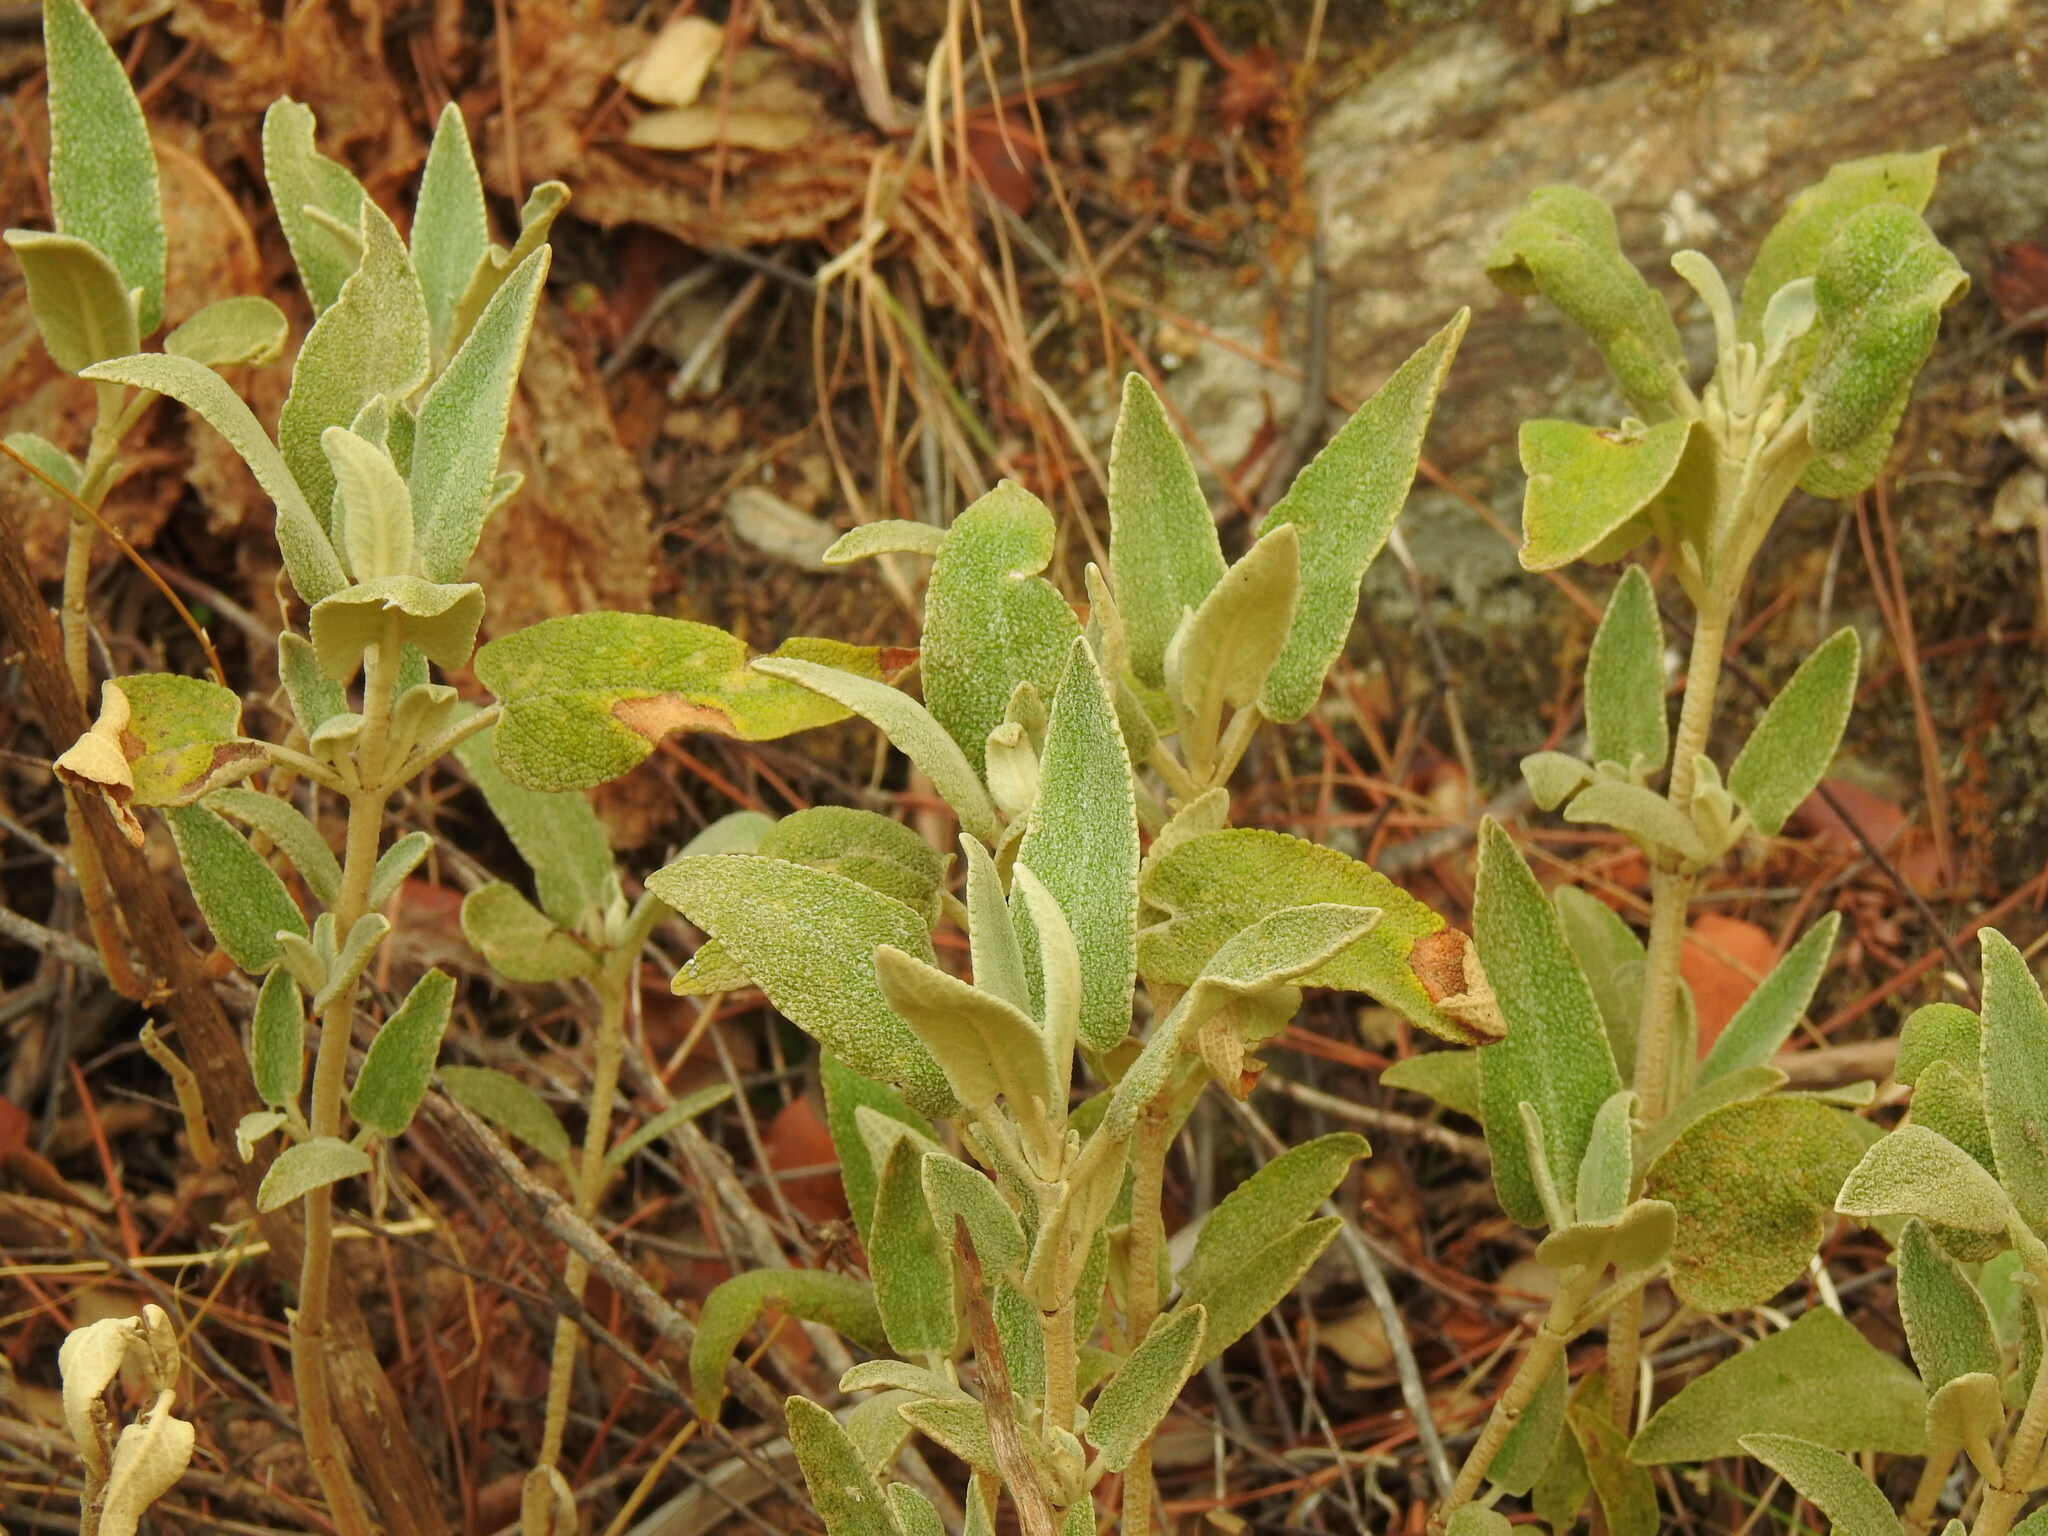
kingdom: Plantae
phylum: Tracheophyta
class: Magnoliopsida
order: Lamiales
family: Lamiaceae
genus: Phlomis
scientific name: Phlomis purpurea
